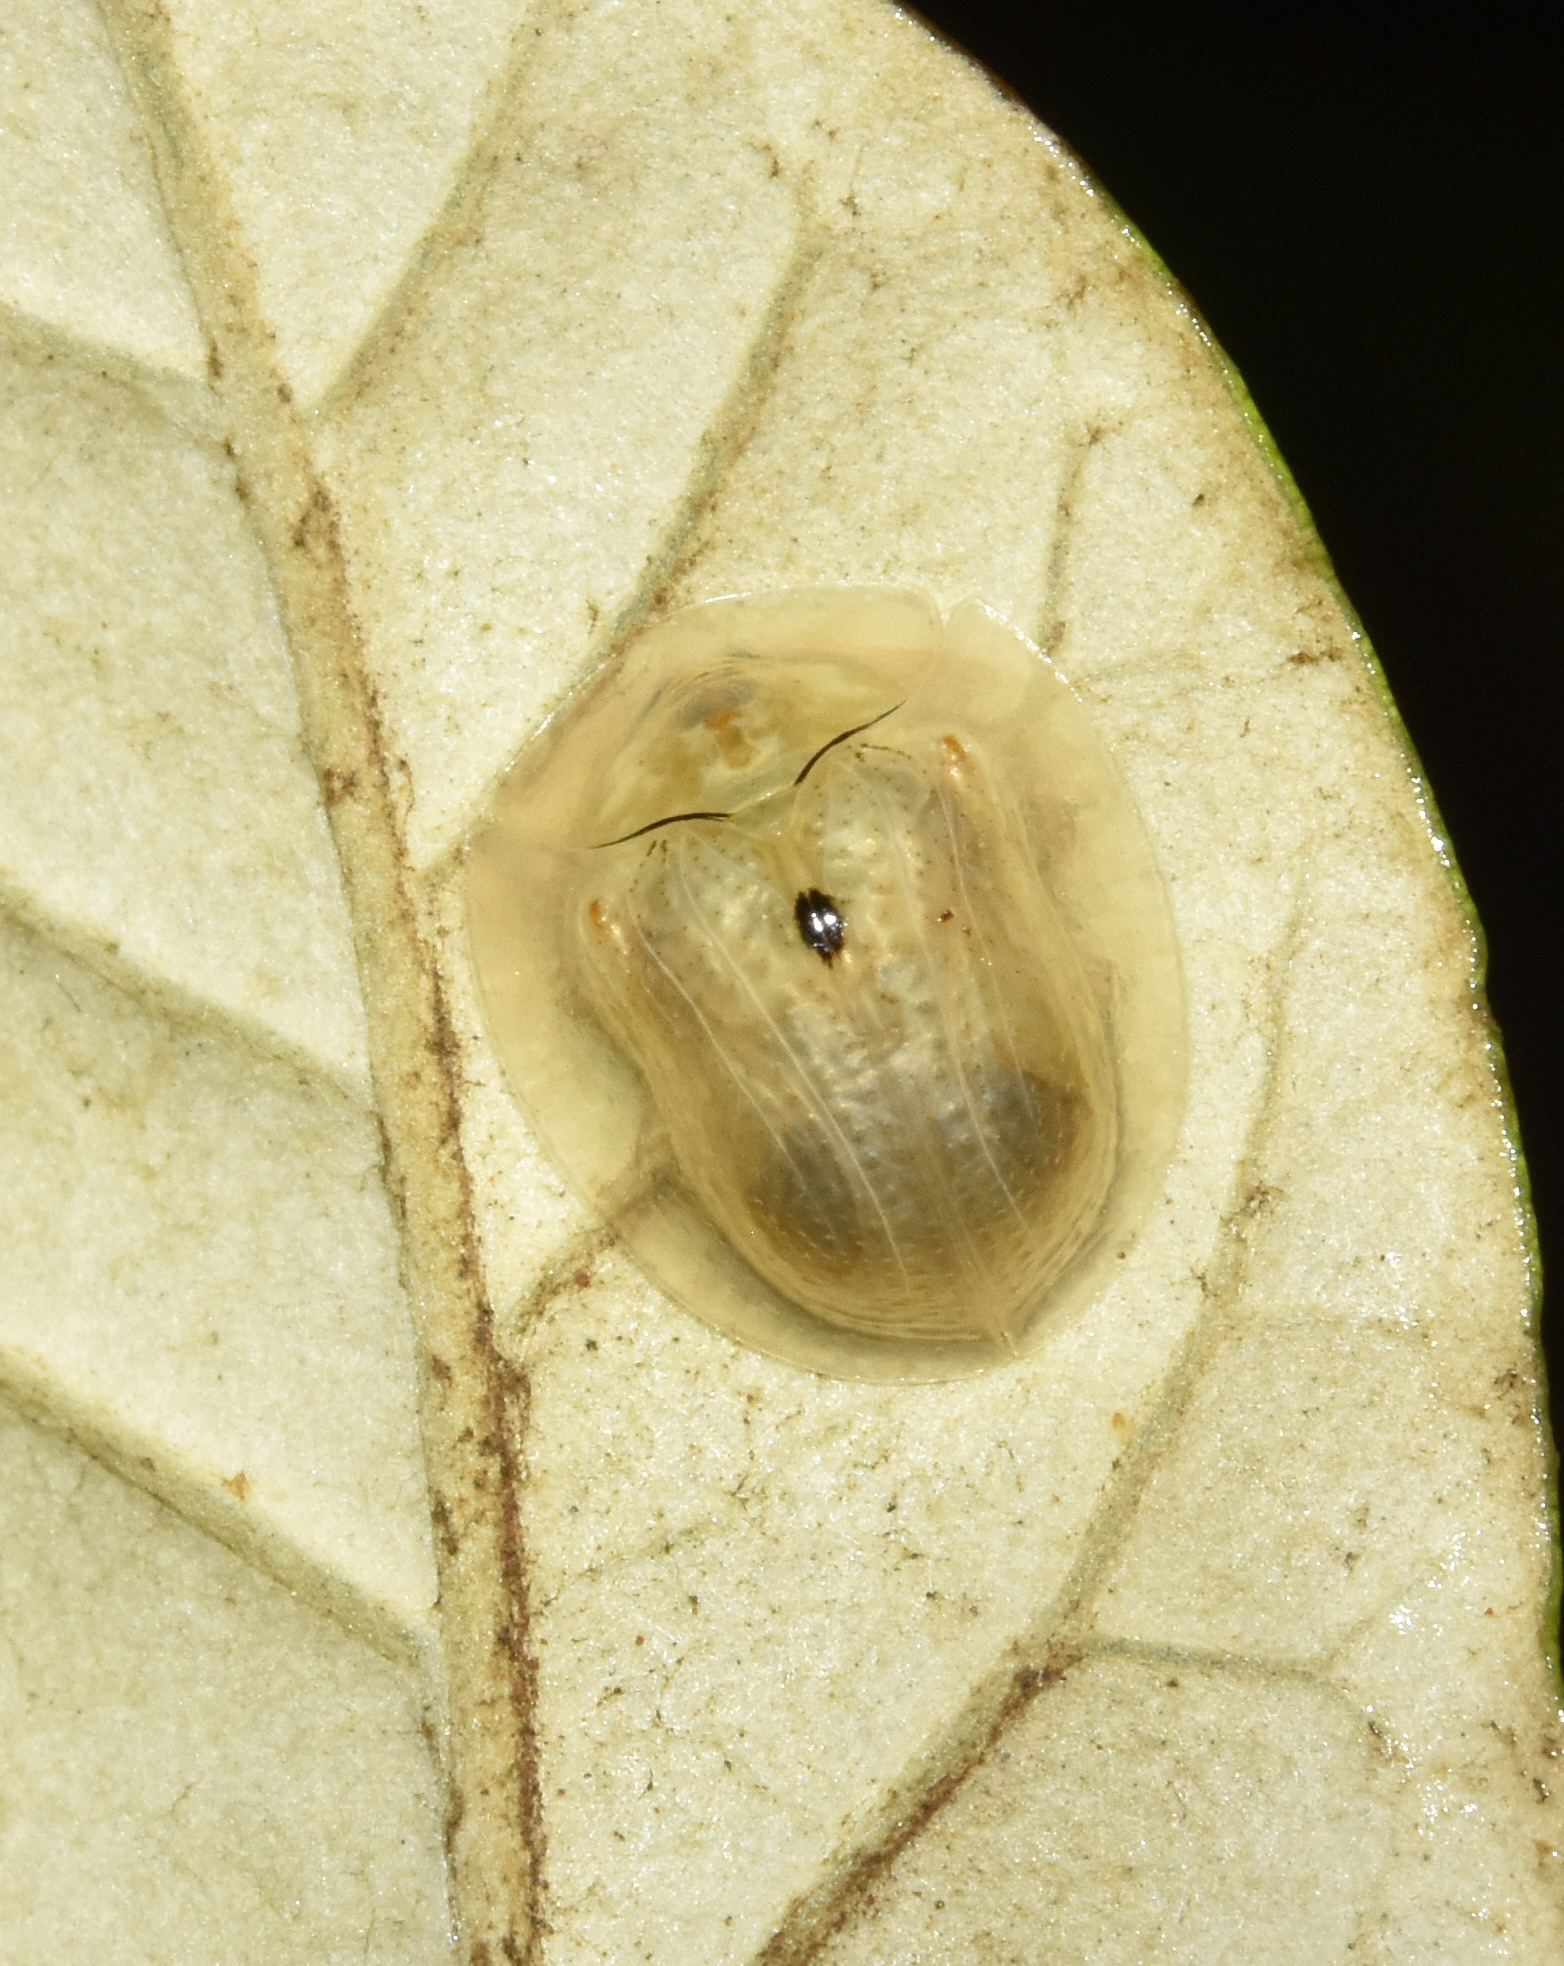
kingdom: Animalia
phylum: Arthropoda
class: Insecta
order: Coleoptera
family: Chrysomelidae
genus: Cassida
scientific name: Cassida unimaculata
